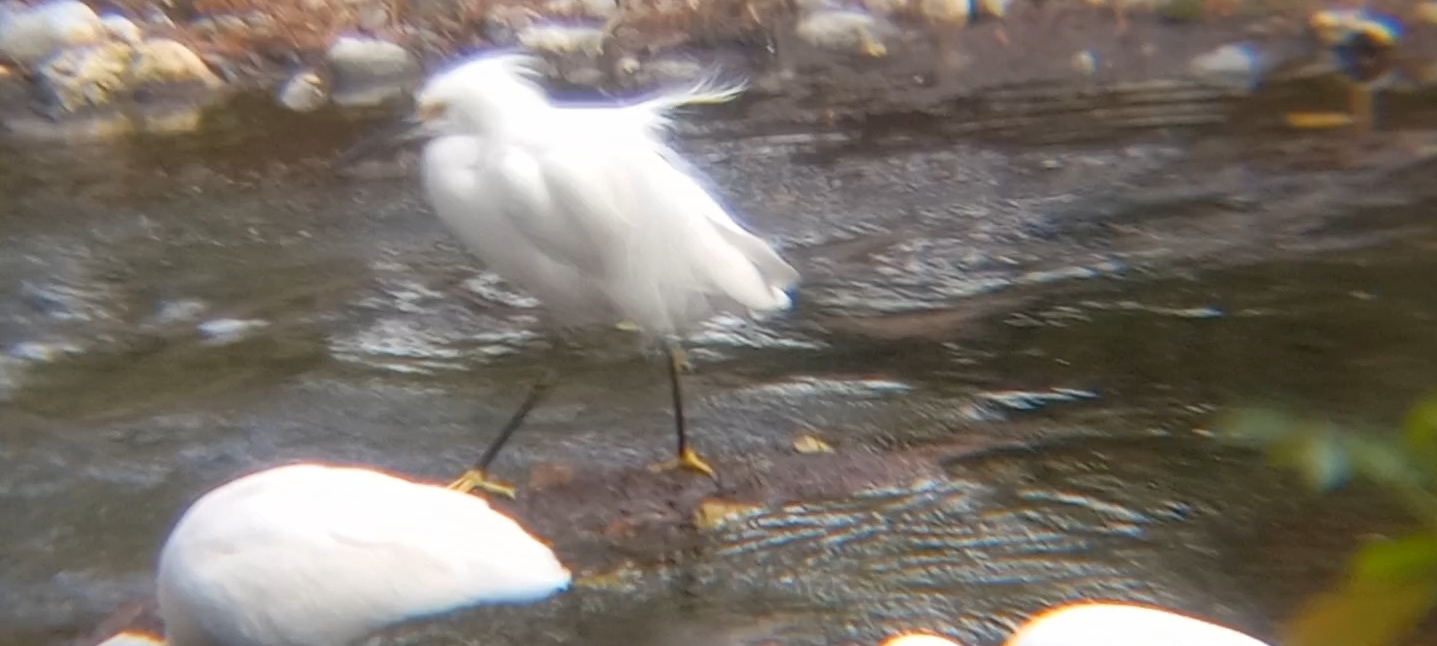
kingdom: Animalia
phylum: Chordata
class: Aves
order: Pelecaniformes
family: Ardeidae
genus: Egretta
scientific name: Egretta thula
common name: Snowy egret
